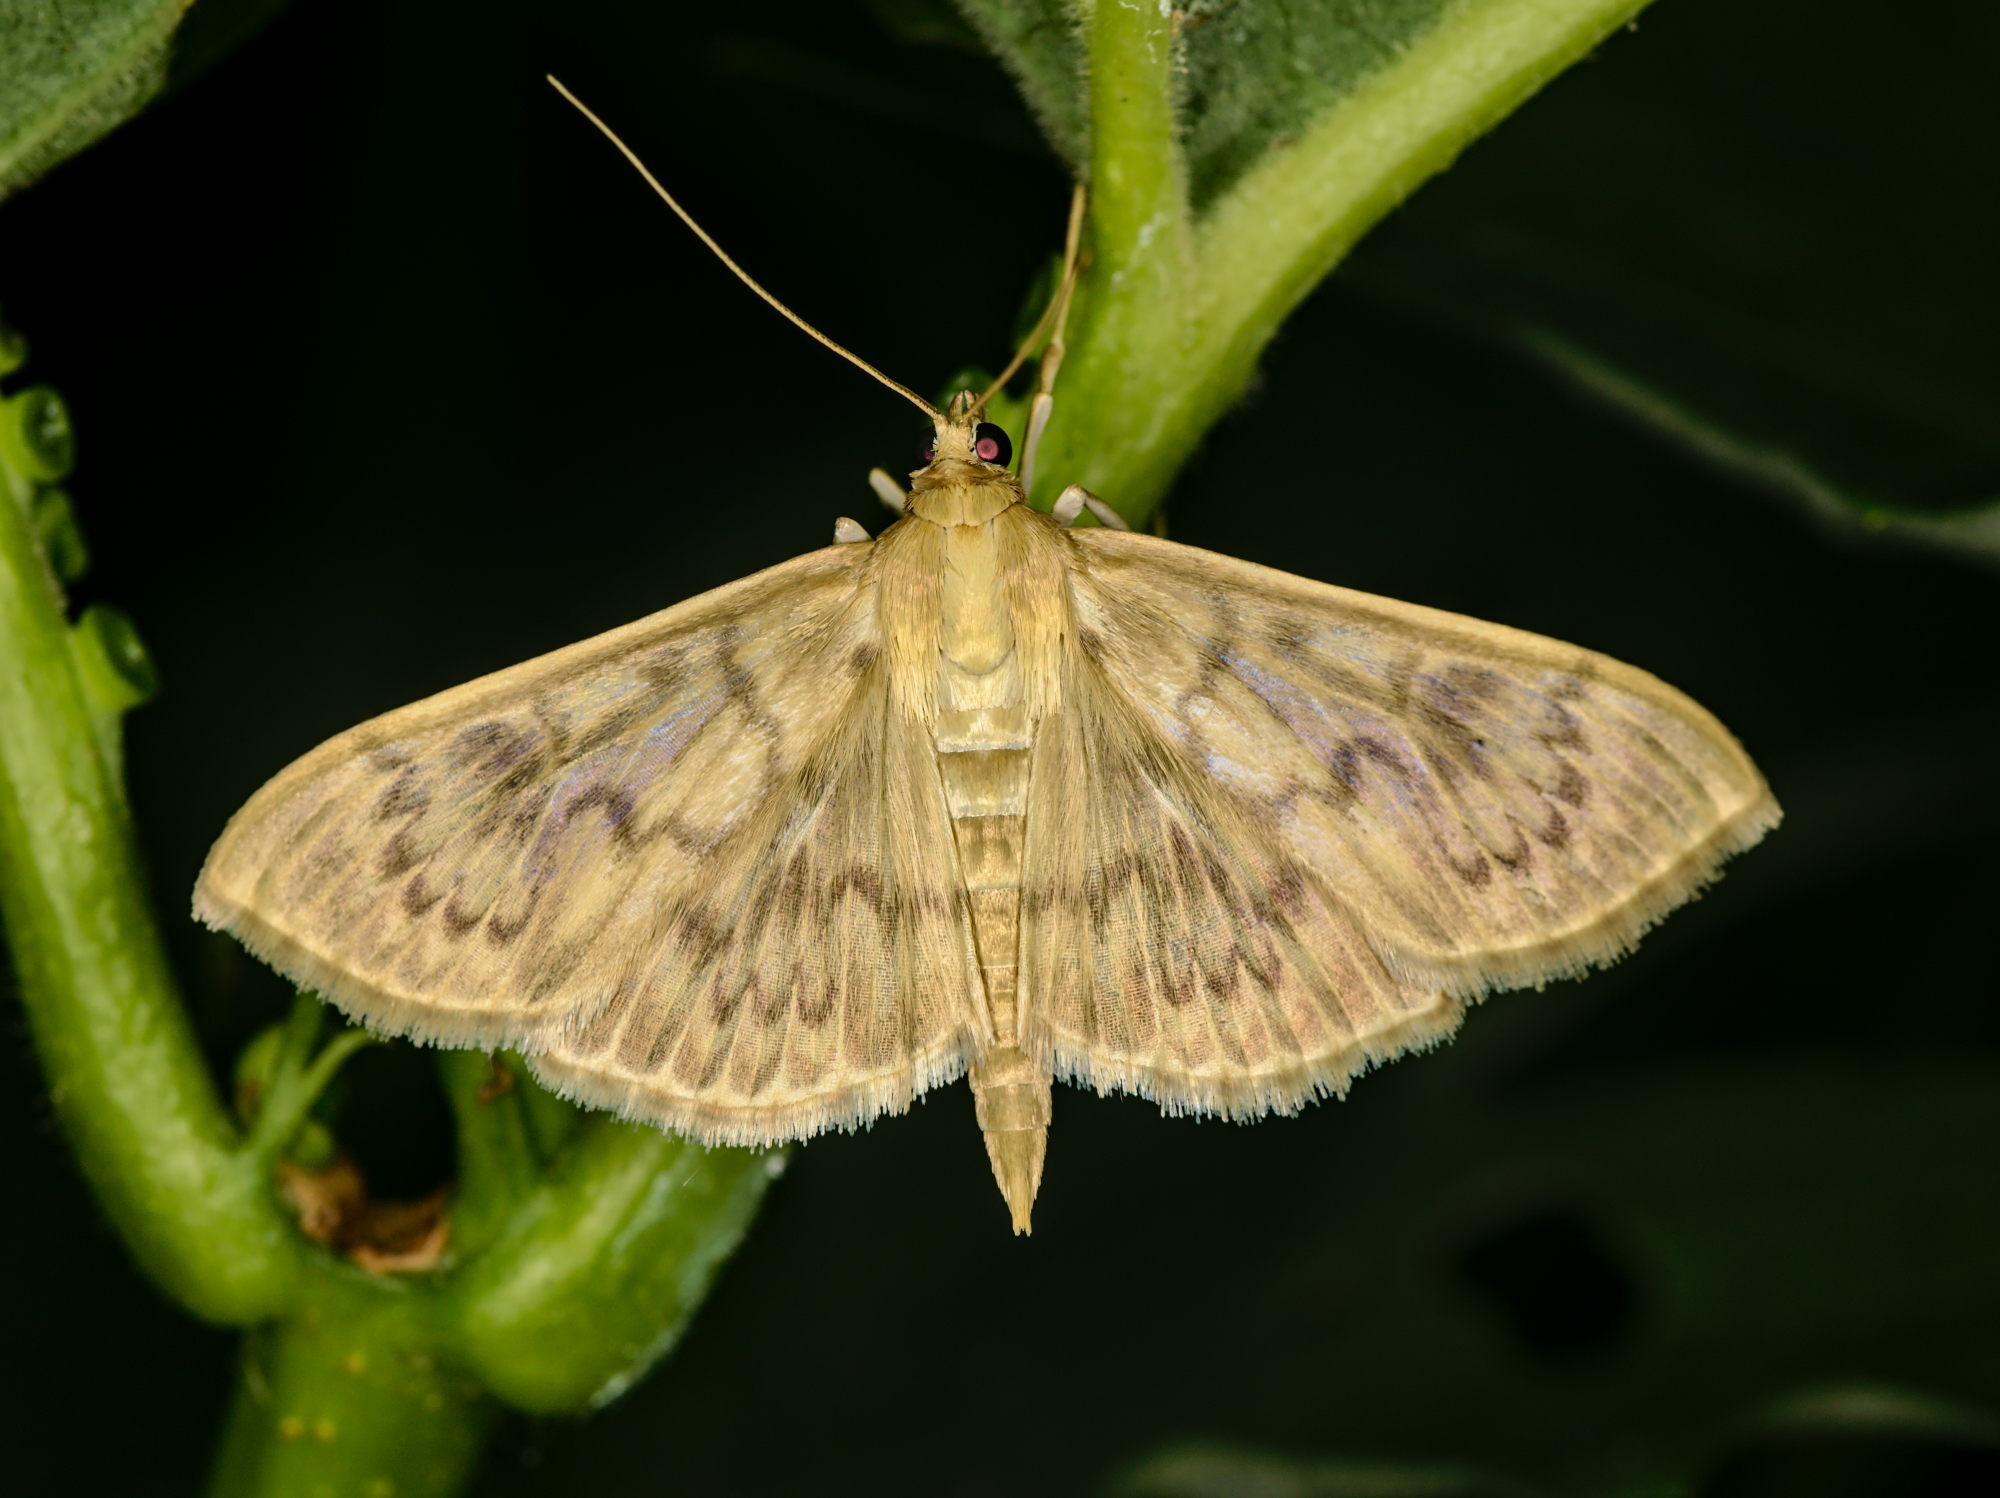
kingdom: Animalia
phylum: Arthropoda
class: Insecta
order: Lepidoptera
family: Crambidae
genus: Patania
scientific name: Patania ruralis
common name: Mother of pearl
